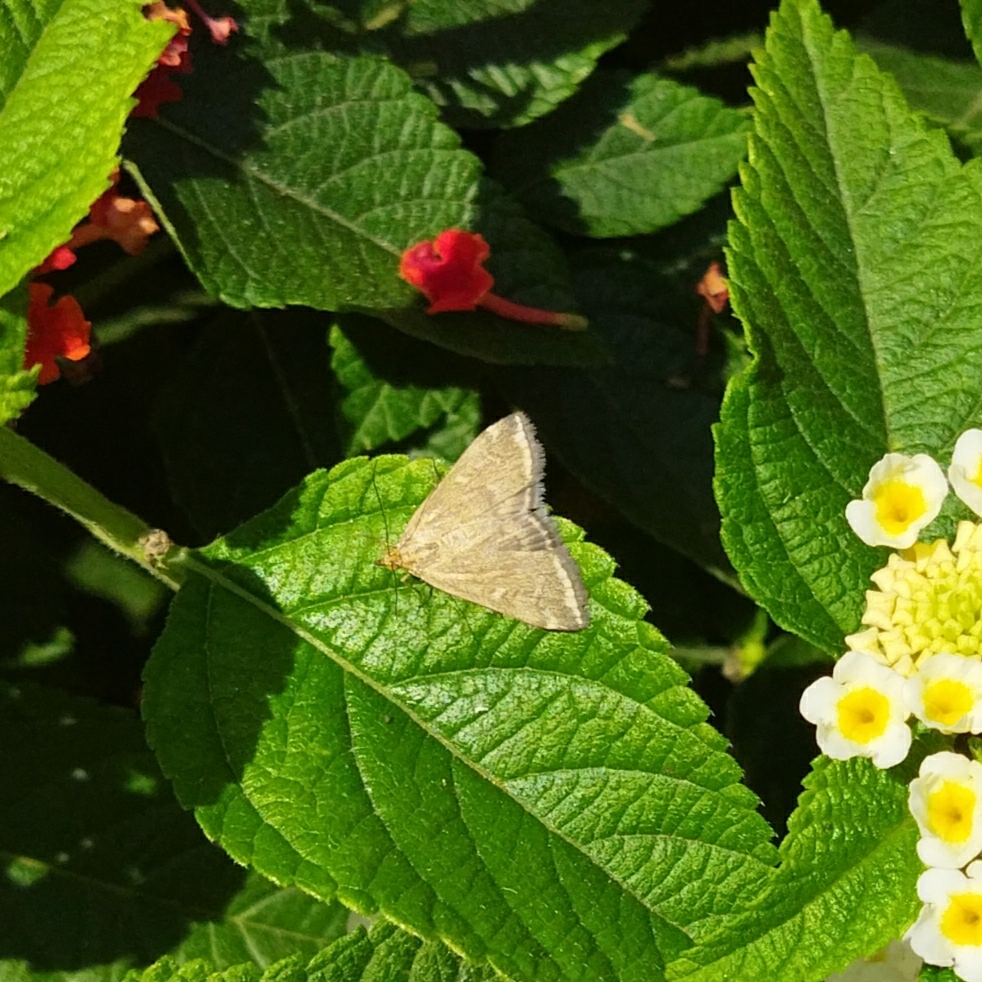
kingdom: Animalia
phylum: Arthropoda
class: Insecta
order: Lepidoptera
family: Crambidae
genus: Loxostege
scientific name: Loxostege sticticalis
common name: Crambid moth
